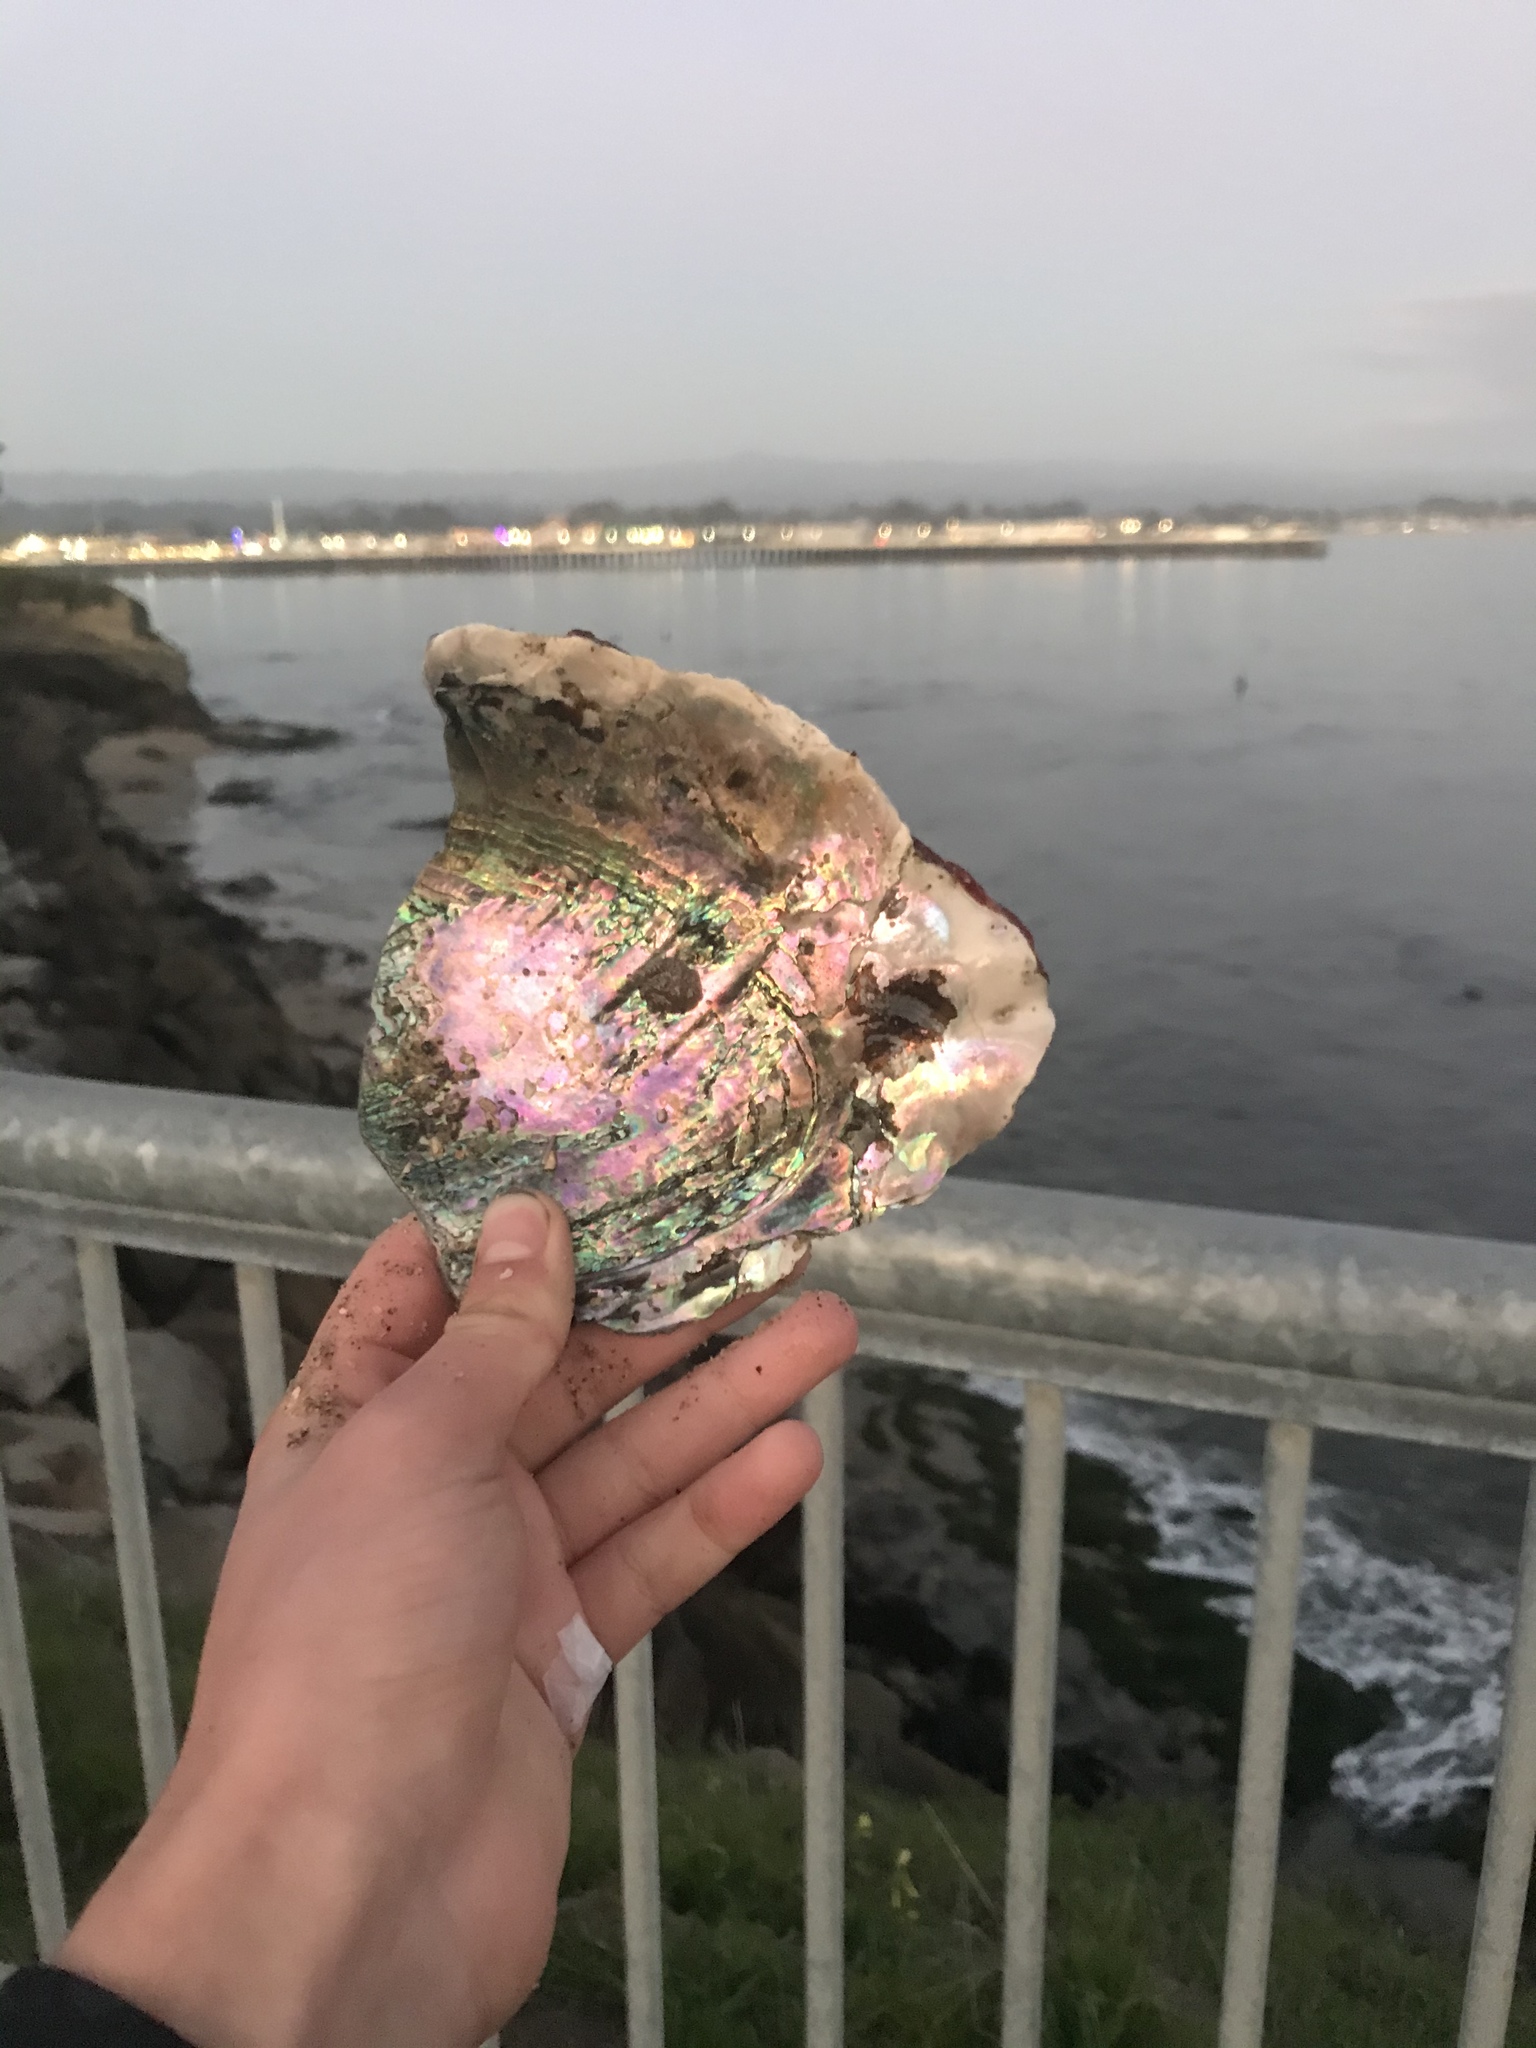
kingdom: Animalia
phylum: Mollusca
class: Gastropoda
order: Lepetellida
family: Haliotidae
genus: Haliotis
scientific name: Haliotis rufescens
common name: Red abalone
